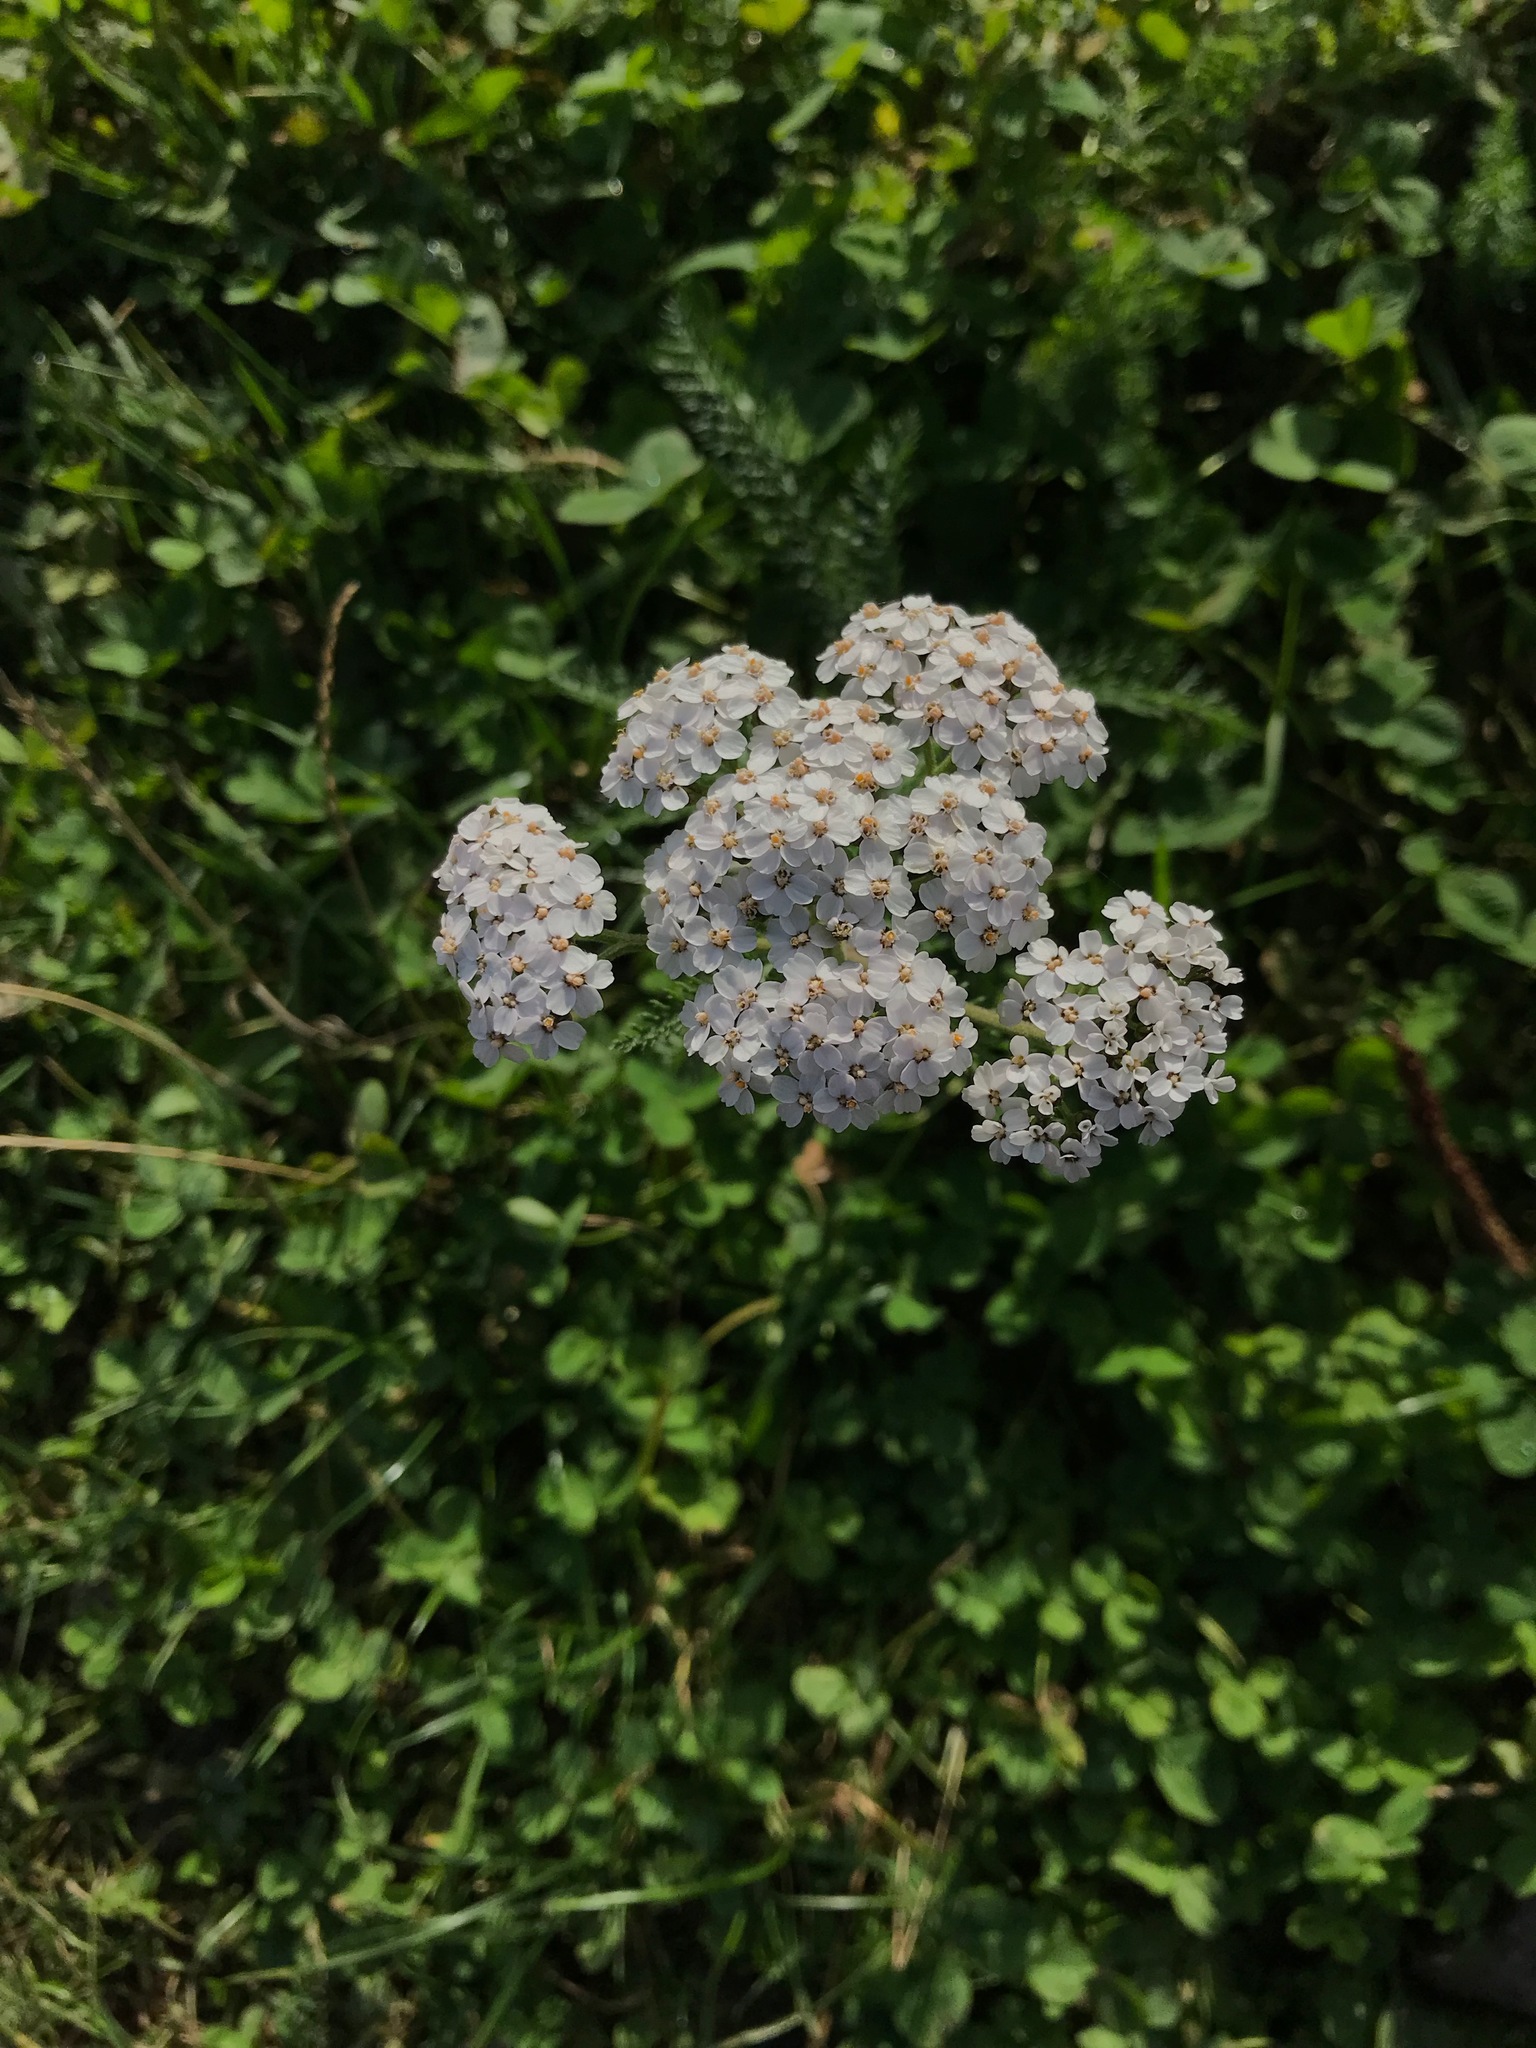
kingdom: Plantae
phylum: Tracheophyta
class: Magnoliopsida
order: Asterales
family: Asteraceae
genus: Achillea
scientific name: Achillea millefolium
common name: Yarrow
